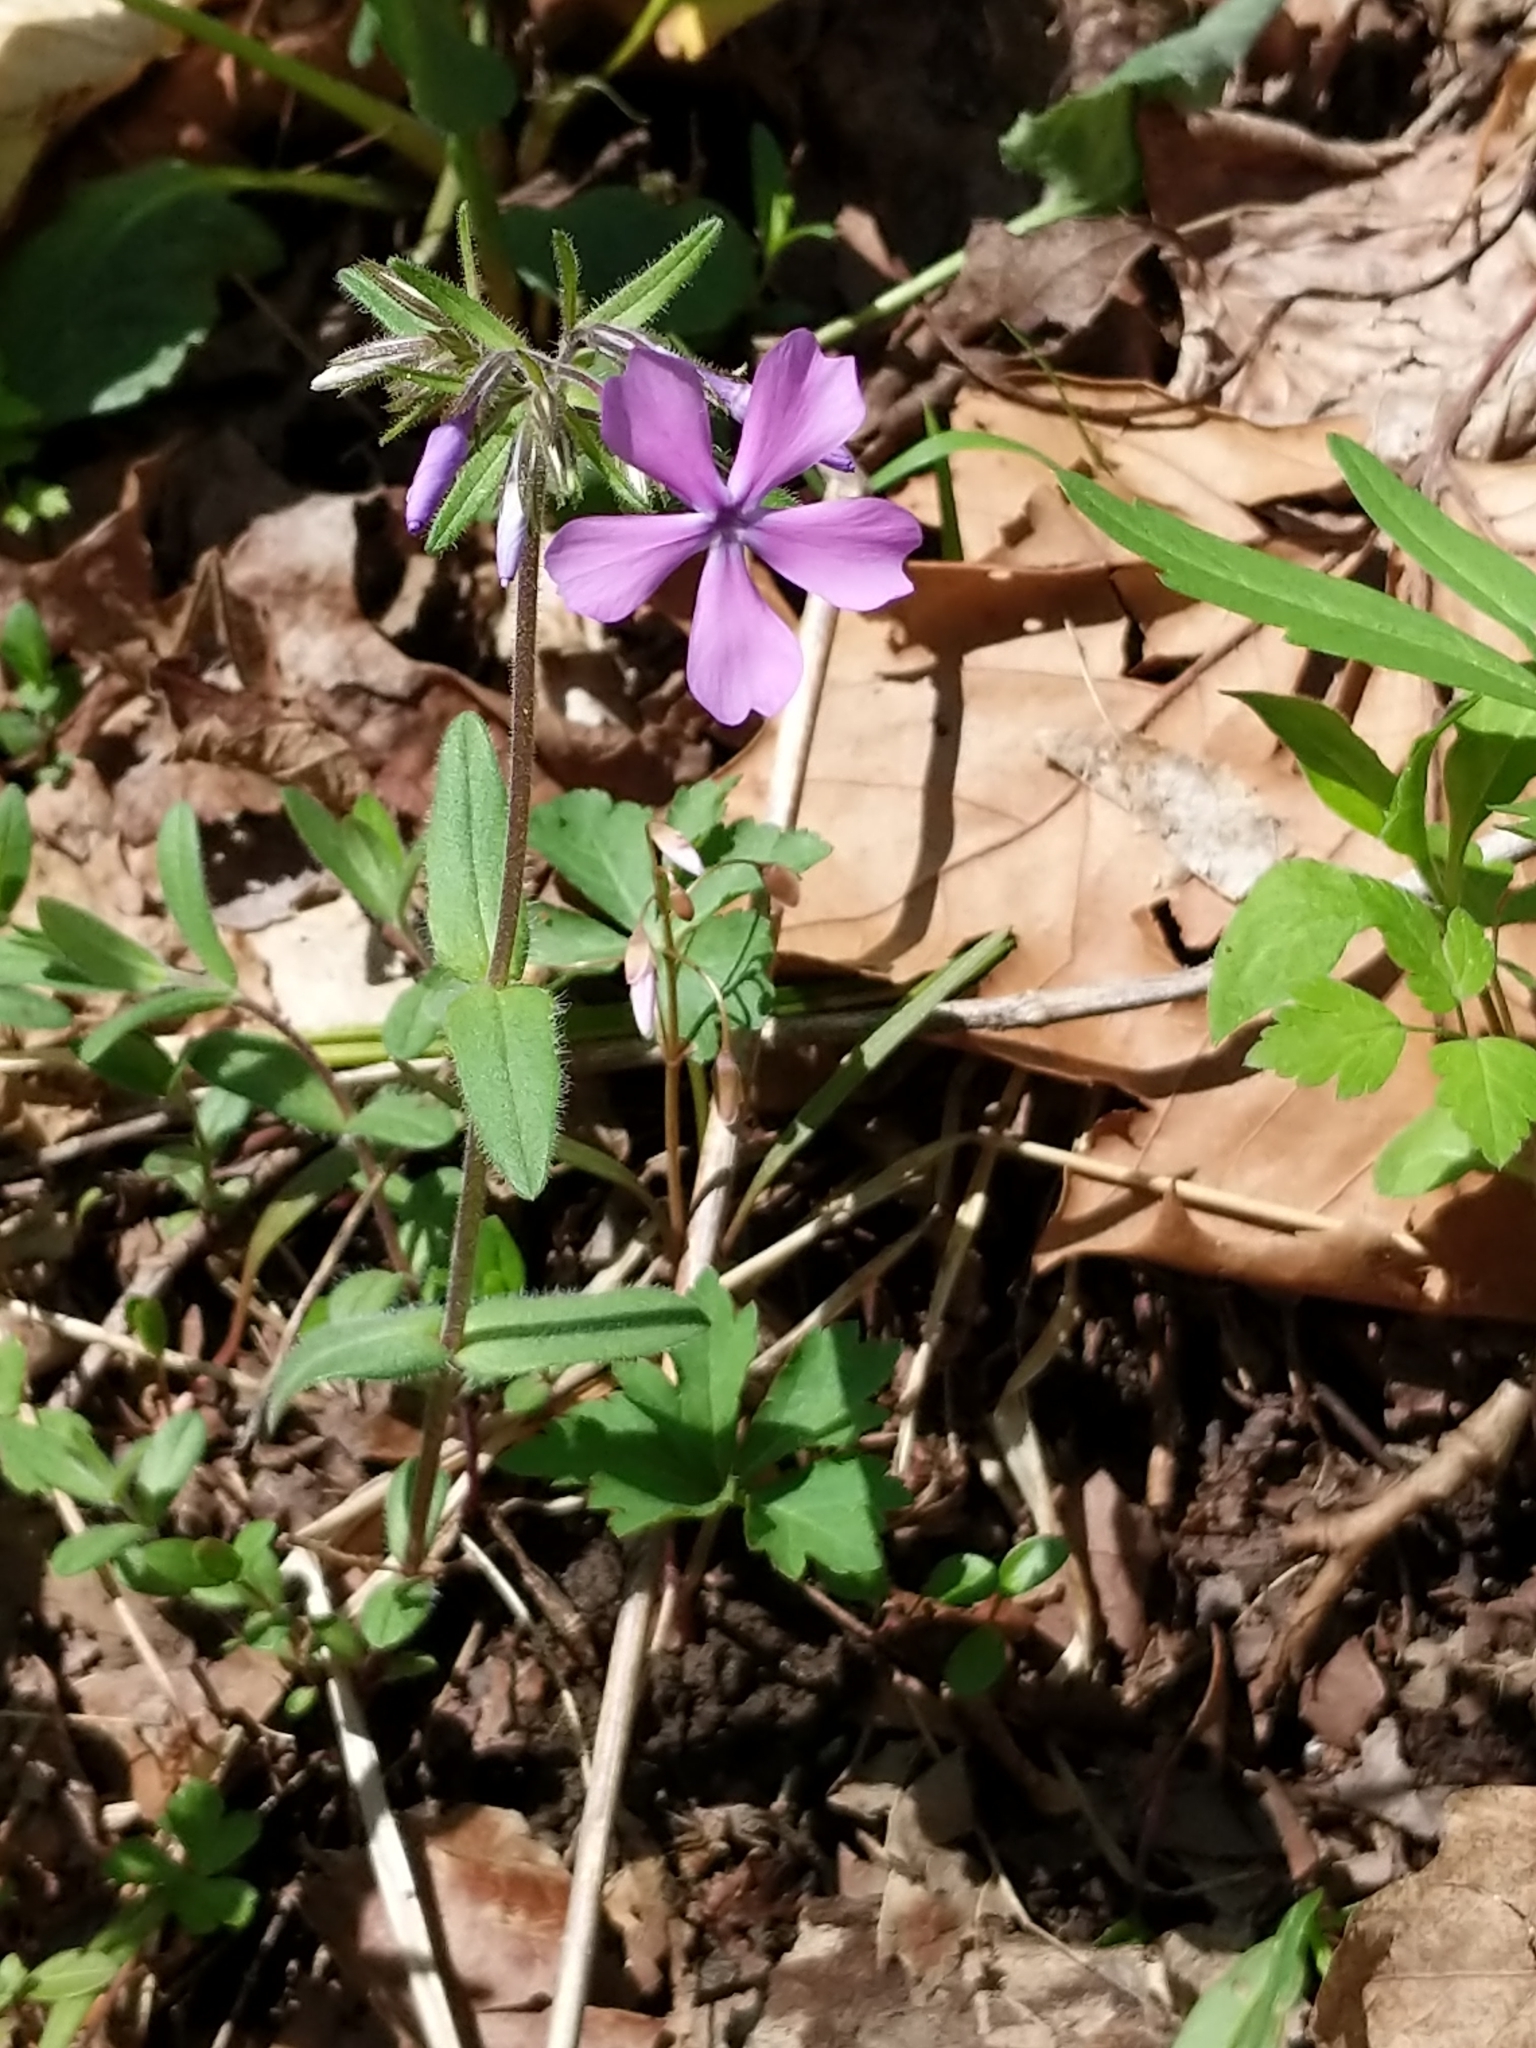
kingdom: Plantae
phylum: Tracheophyta
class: Magnoliopsida
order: Ericales
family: Polemoniaceae
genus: Phlox
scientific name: Phlox divaricata
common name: Blue phlox
